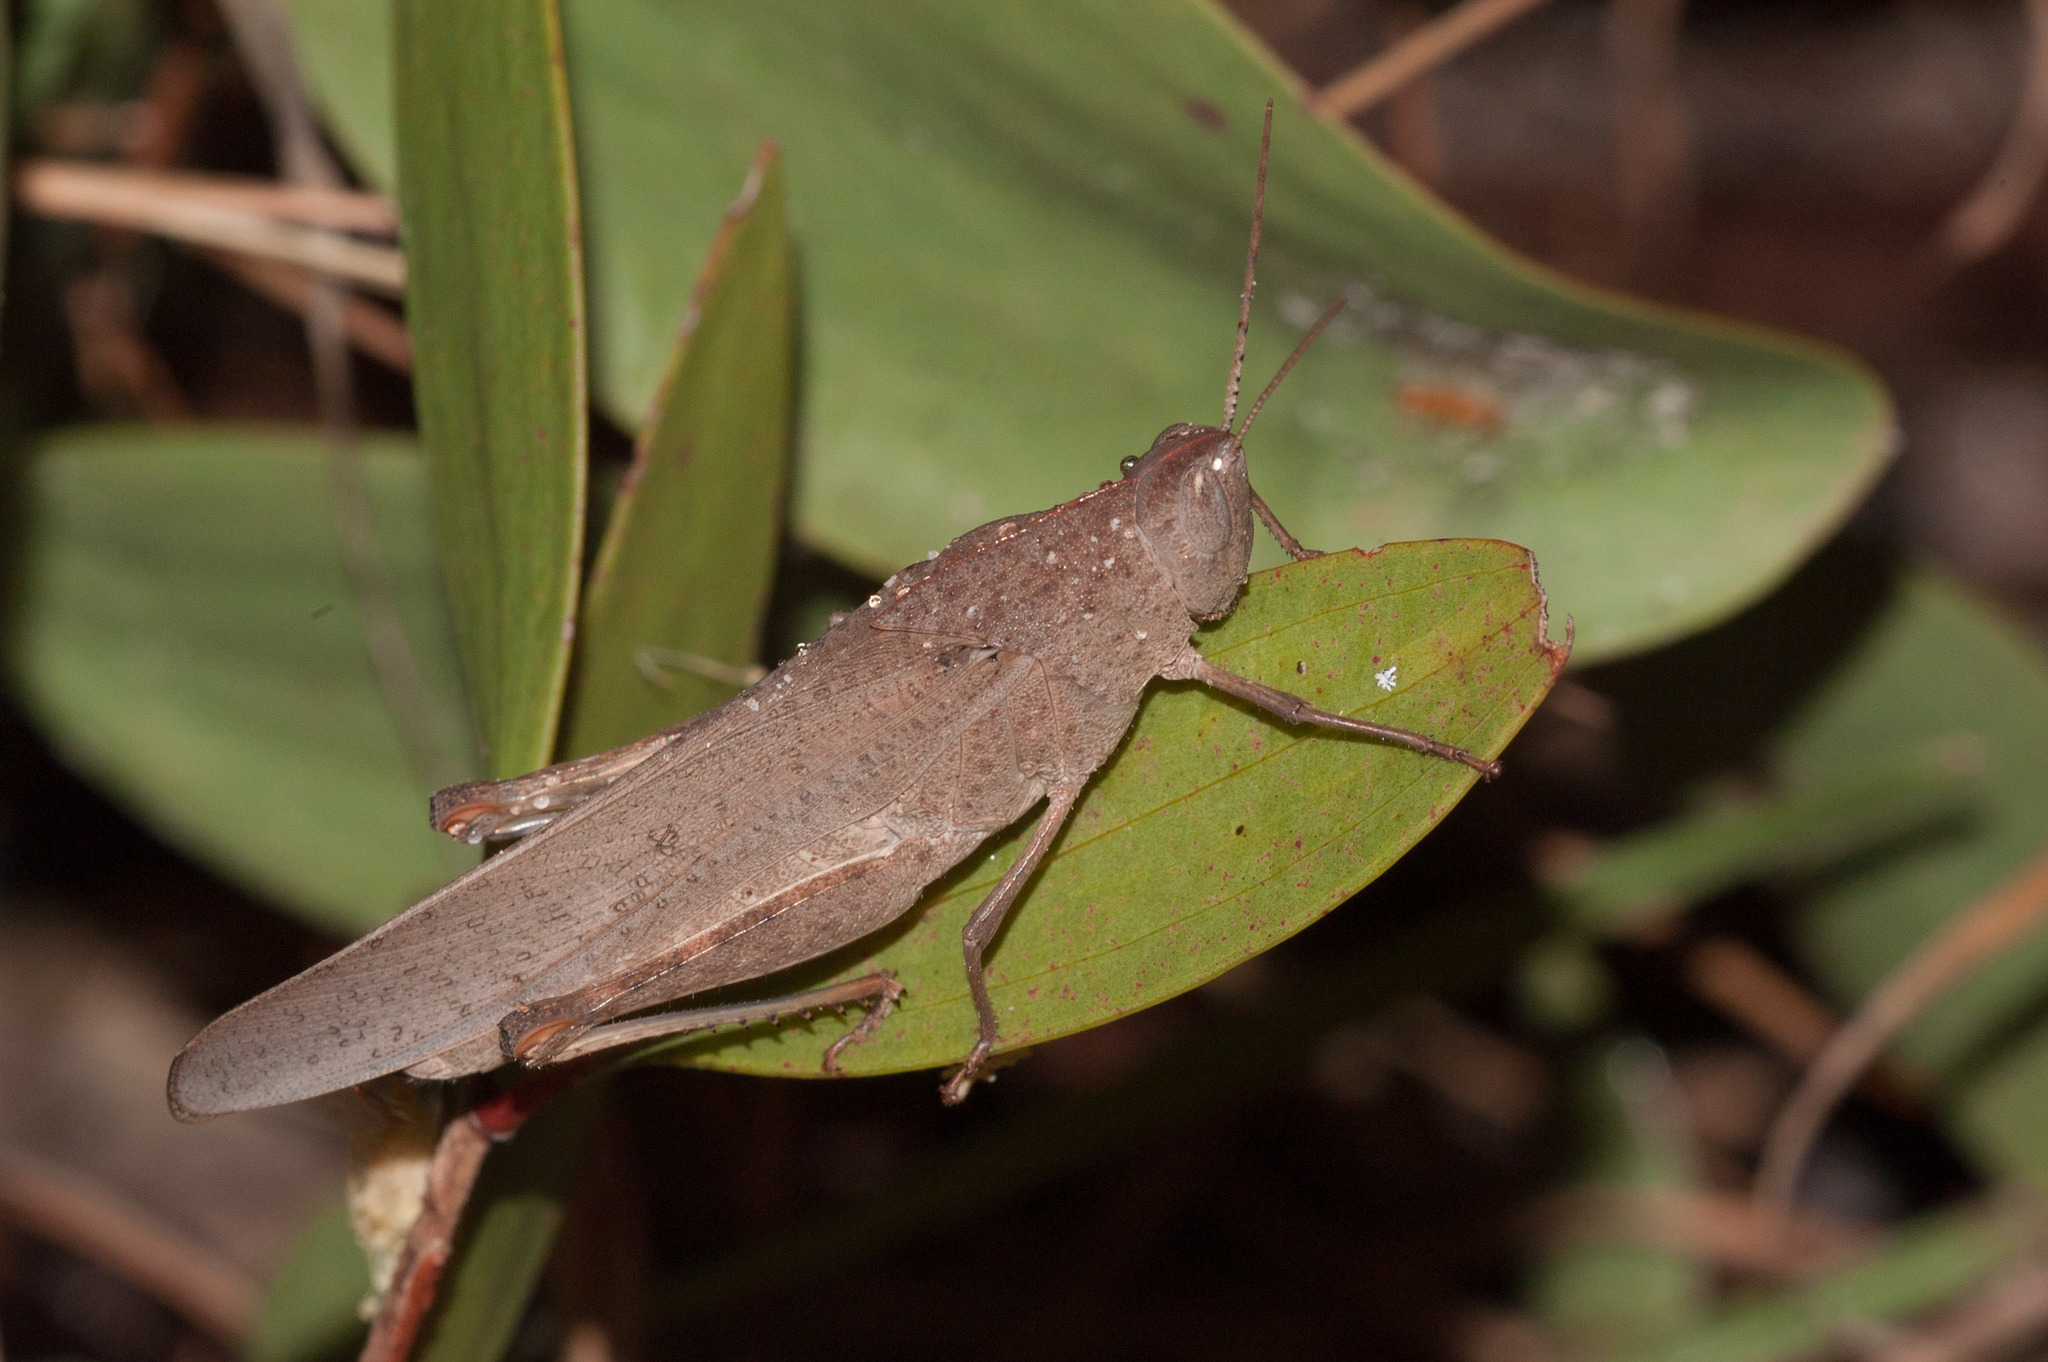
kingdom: Animalia
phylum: Arthropoda
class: Insecta
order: Orthoptera
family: Acrididae
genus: Goniaea
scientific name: Goniaea vocans
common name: Slender gumleaf grasshopper
